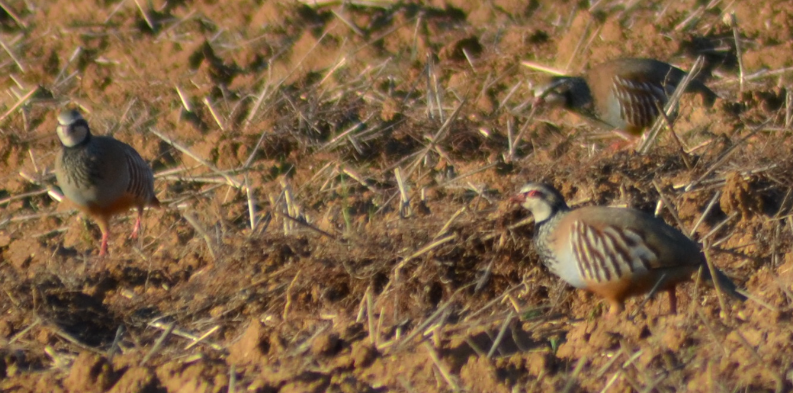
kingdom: Animalia
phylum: Chordata
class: Aves
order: Galliformes
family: Phasianidae
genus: Alectoris
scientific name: Alectoris rufa
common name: Red-legged partridge
